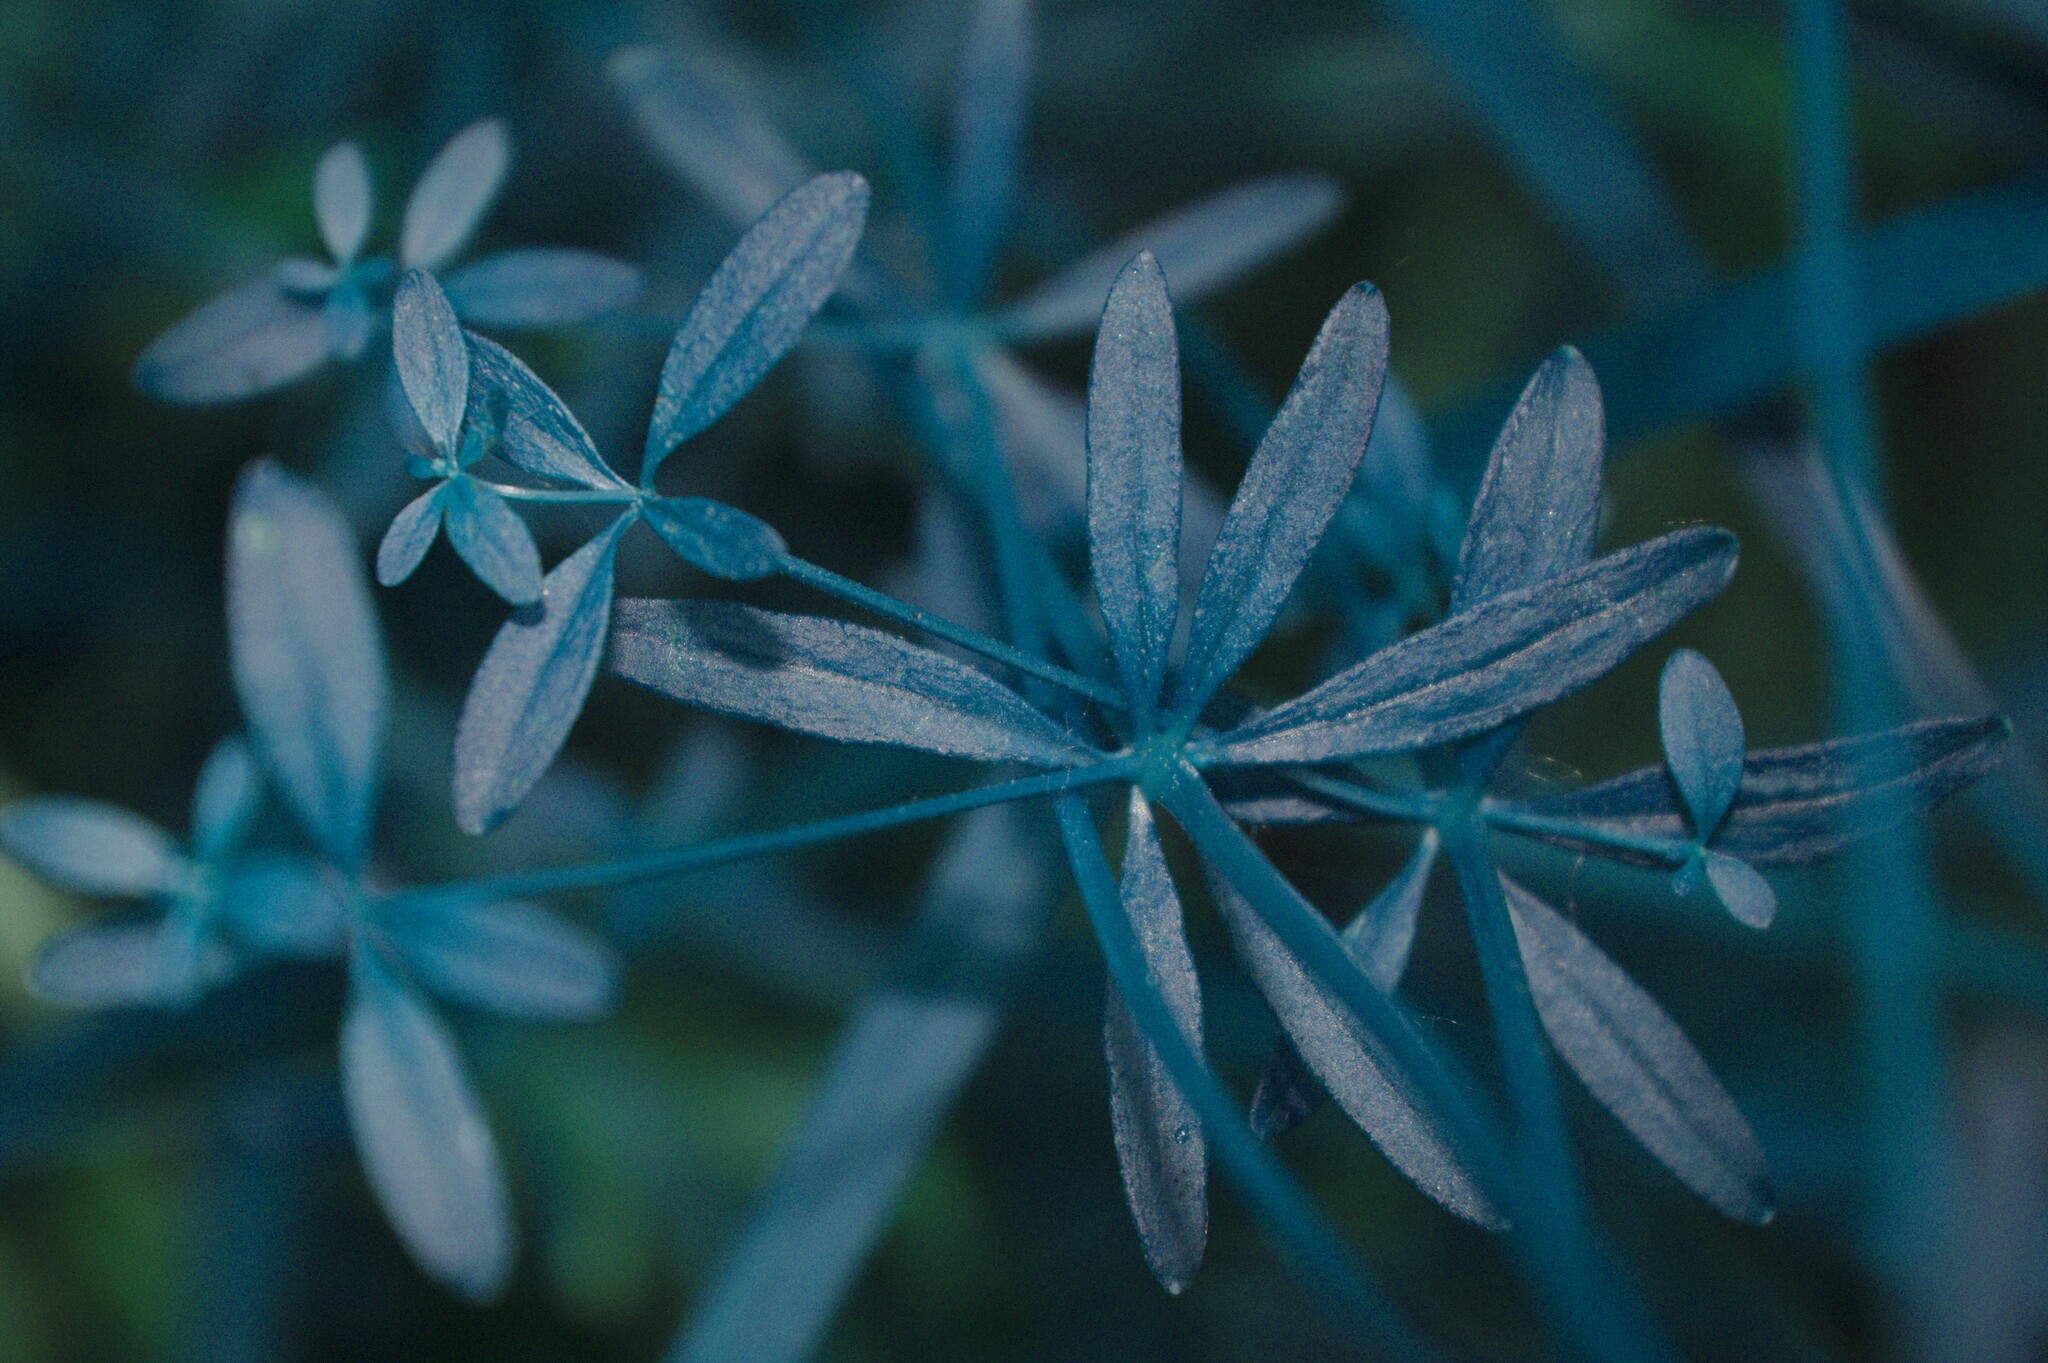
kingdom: Plantae
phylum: Tracheophyta
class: Magnoliopsida
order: Gentianales
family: Rubiaceae
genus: Galium
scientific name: Galium palustre
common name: Common marsh-bedstraw
